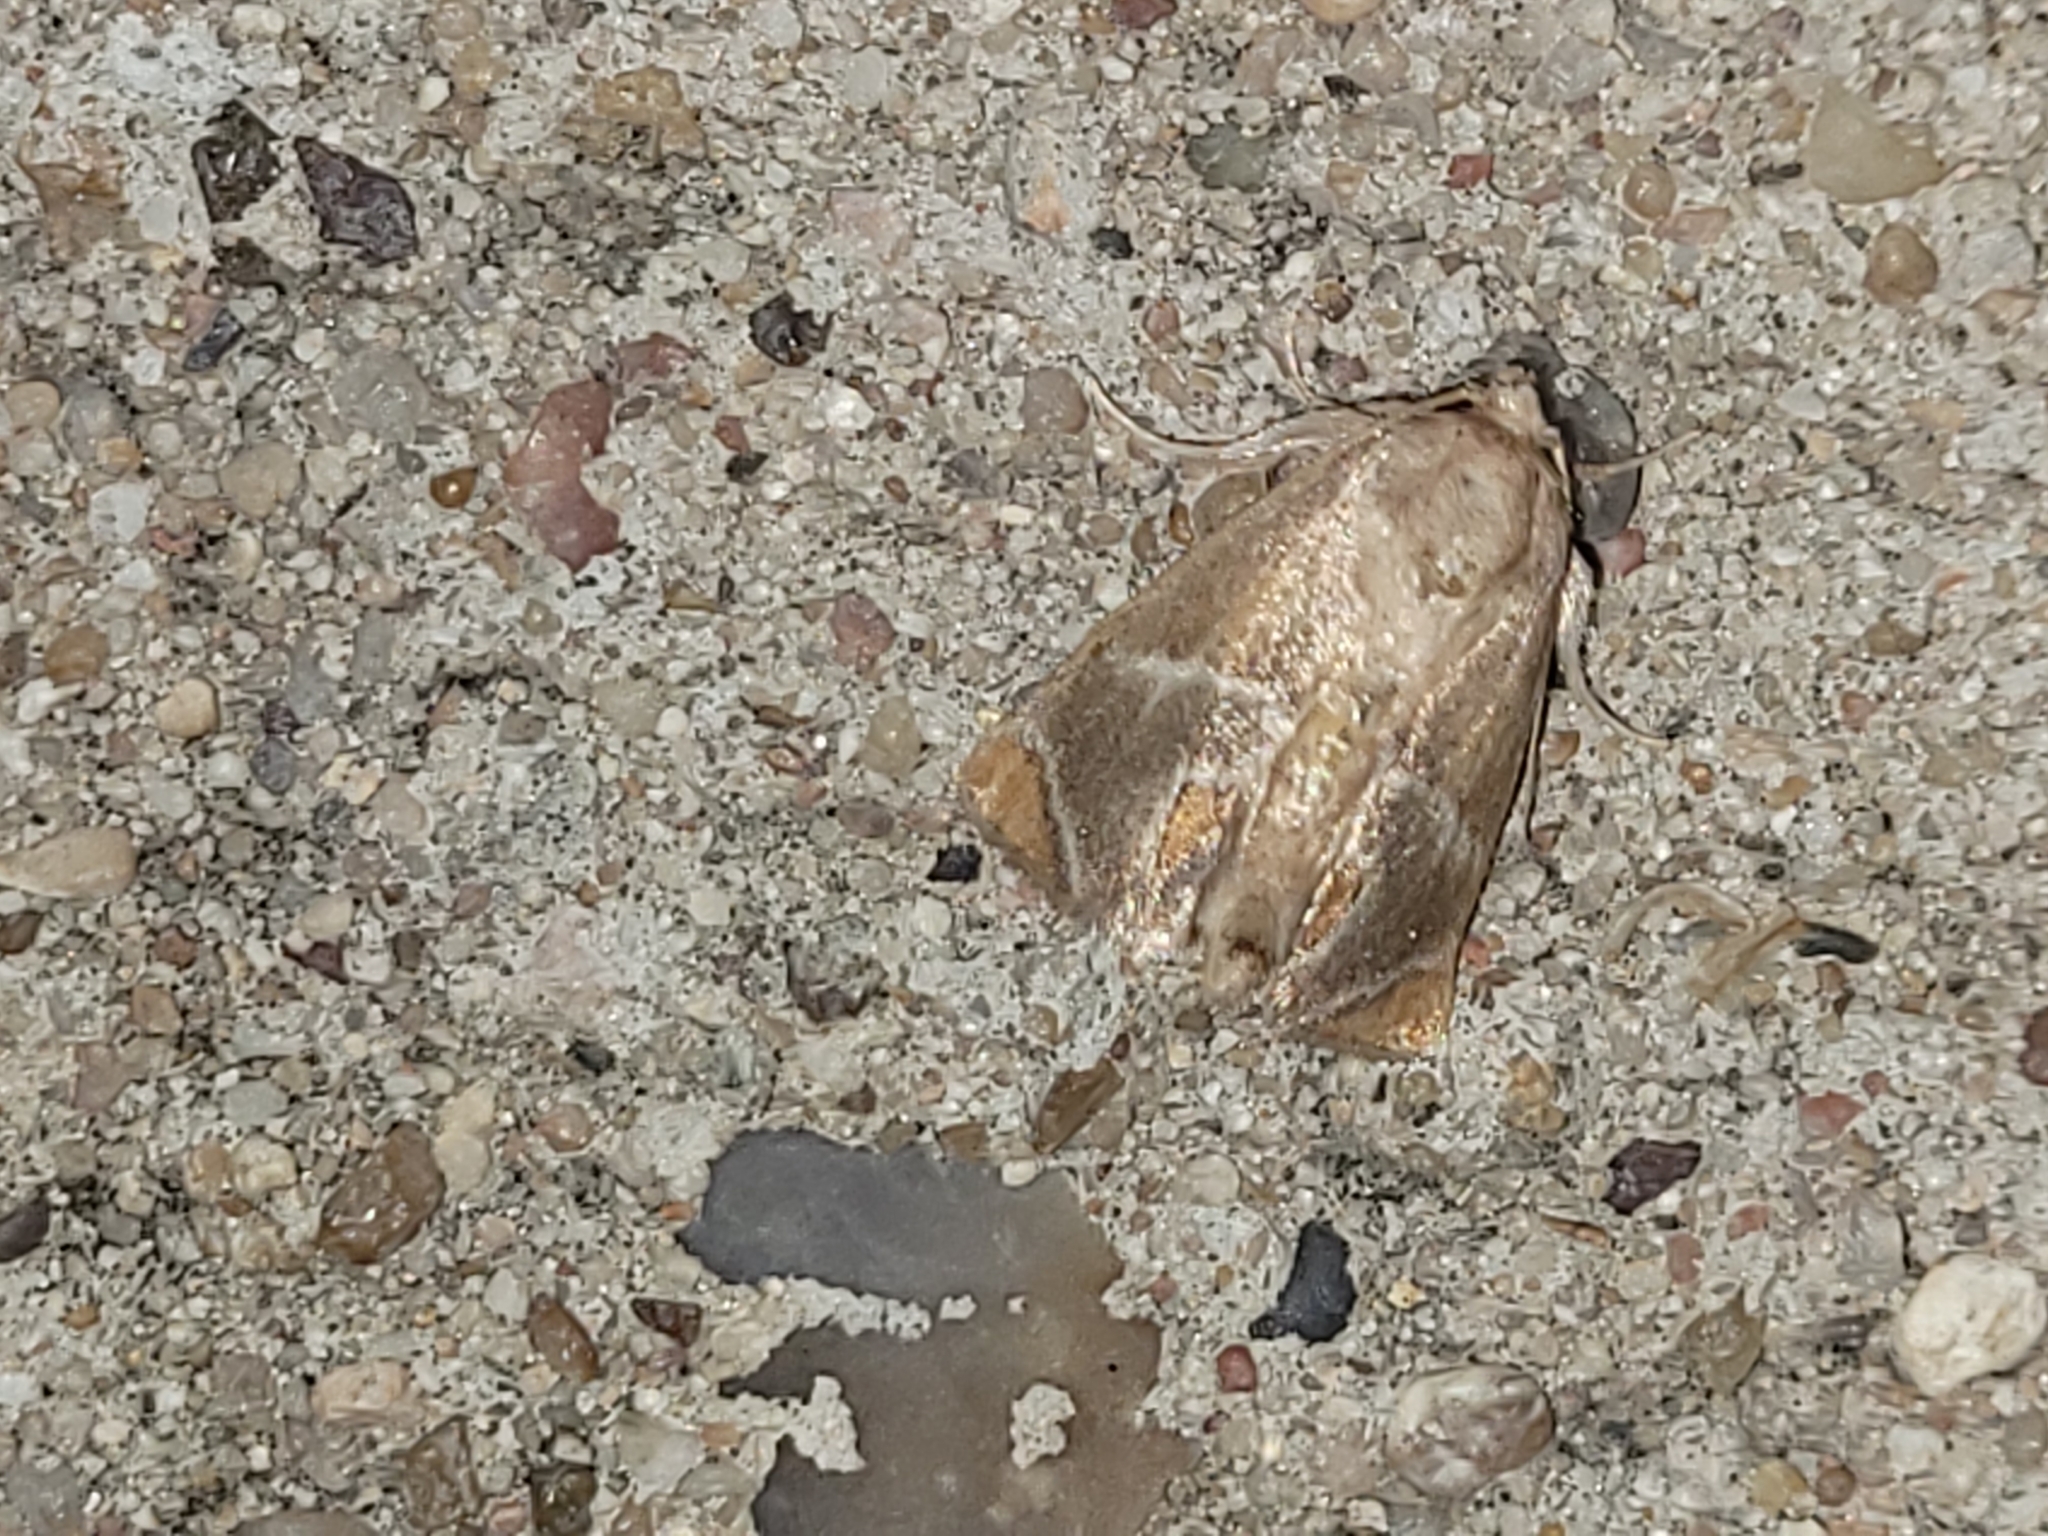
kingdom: Animalia
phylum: Arthropoda
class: Insecta
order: Lepidoptera
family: Limacodidae
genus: Apoda
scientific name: Apoda biguttata
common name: Shagreened slug moth
